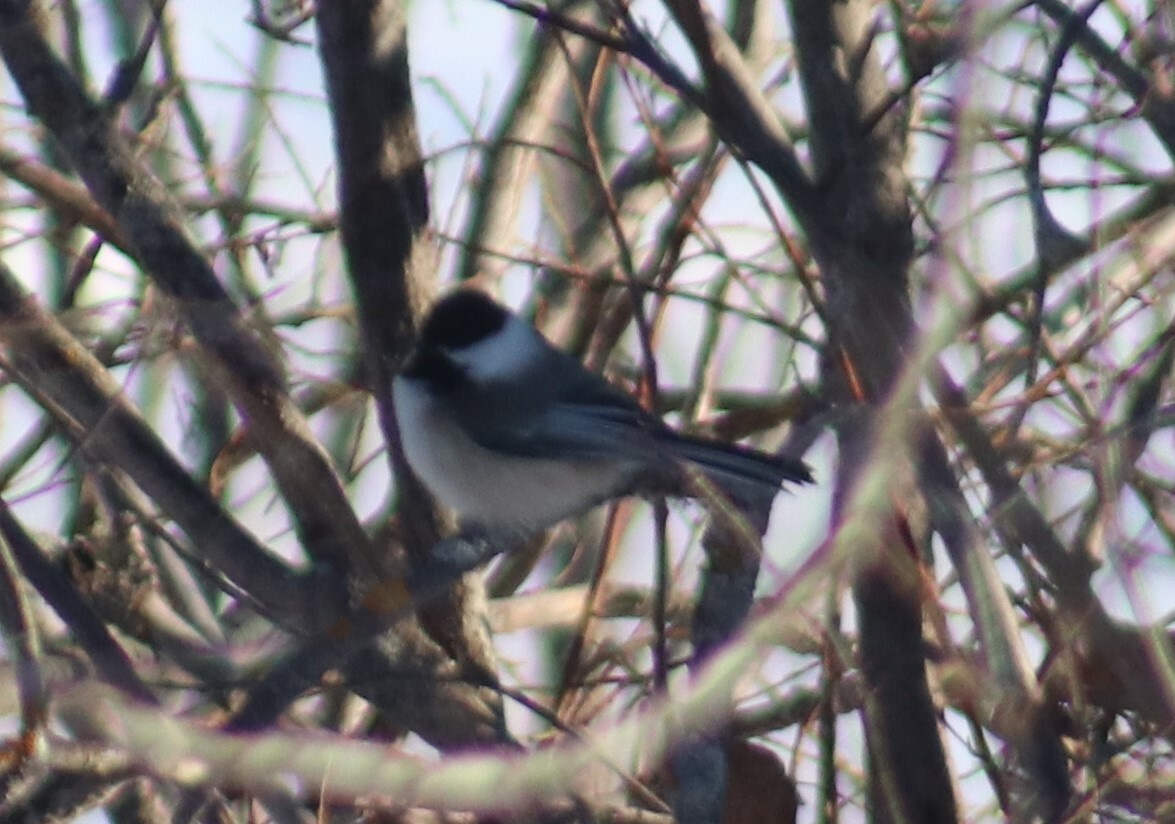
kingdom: Animalia
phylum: Chordata
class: Aves
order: Passeriformes
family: Paridae
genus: Poecile
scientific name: Poecile atricapillus
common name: Black-capped chickadee
